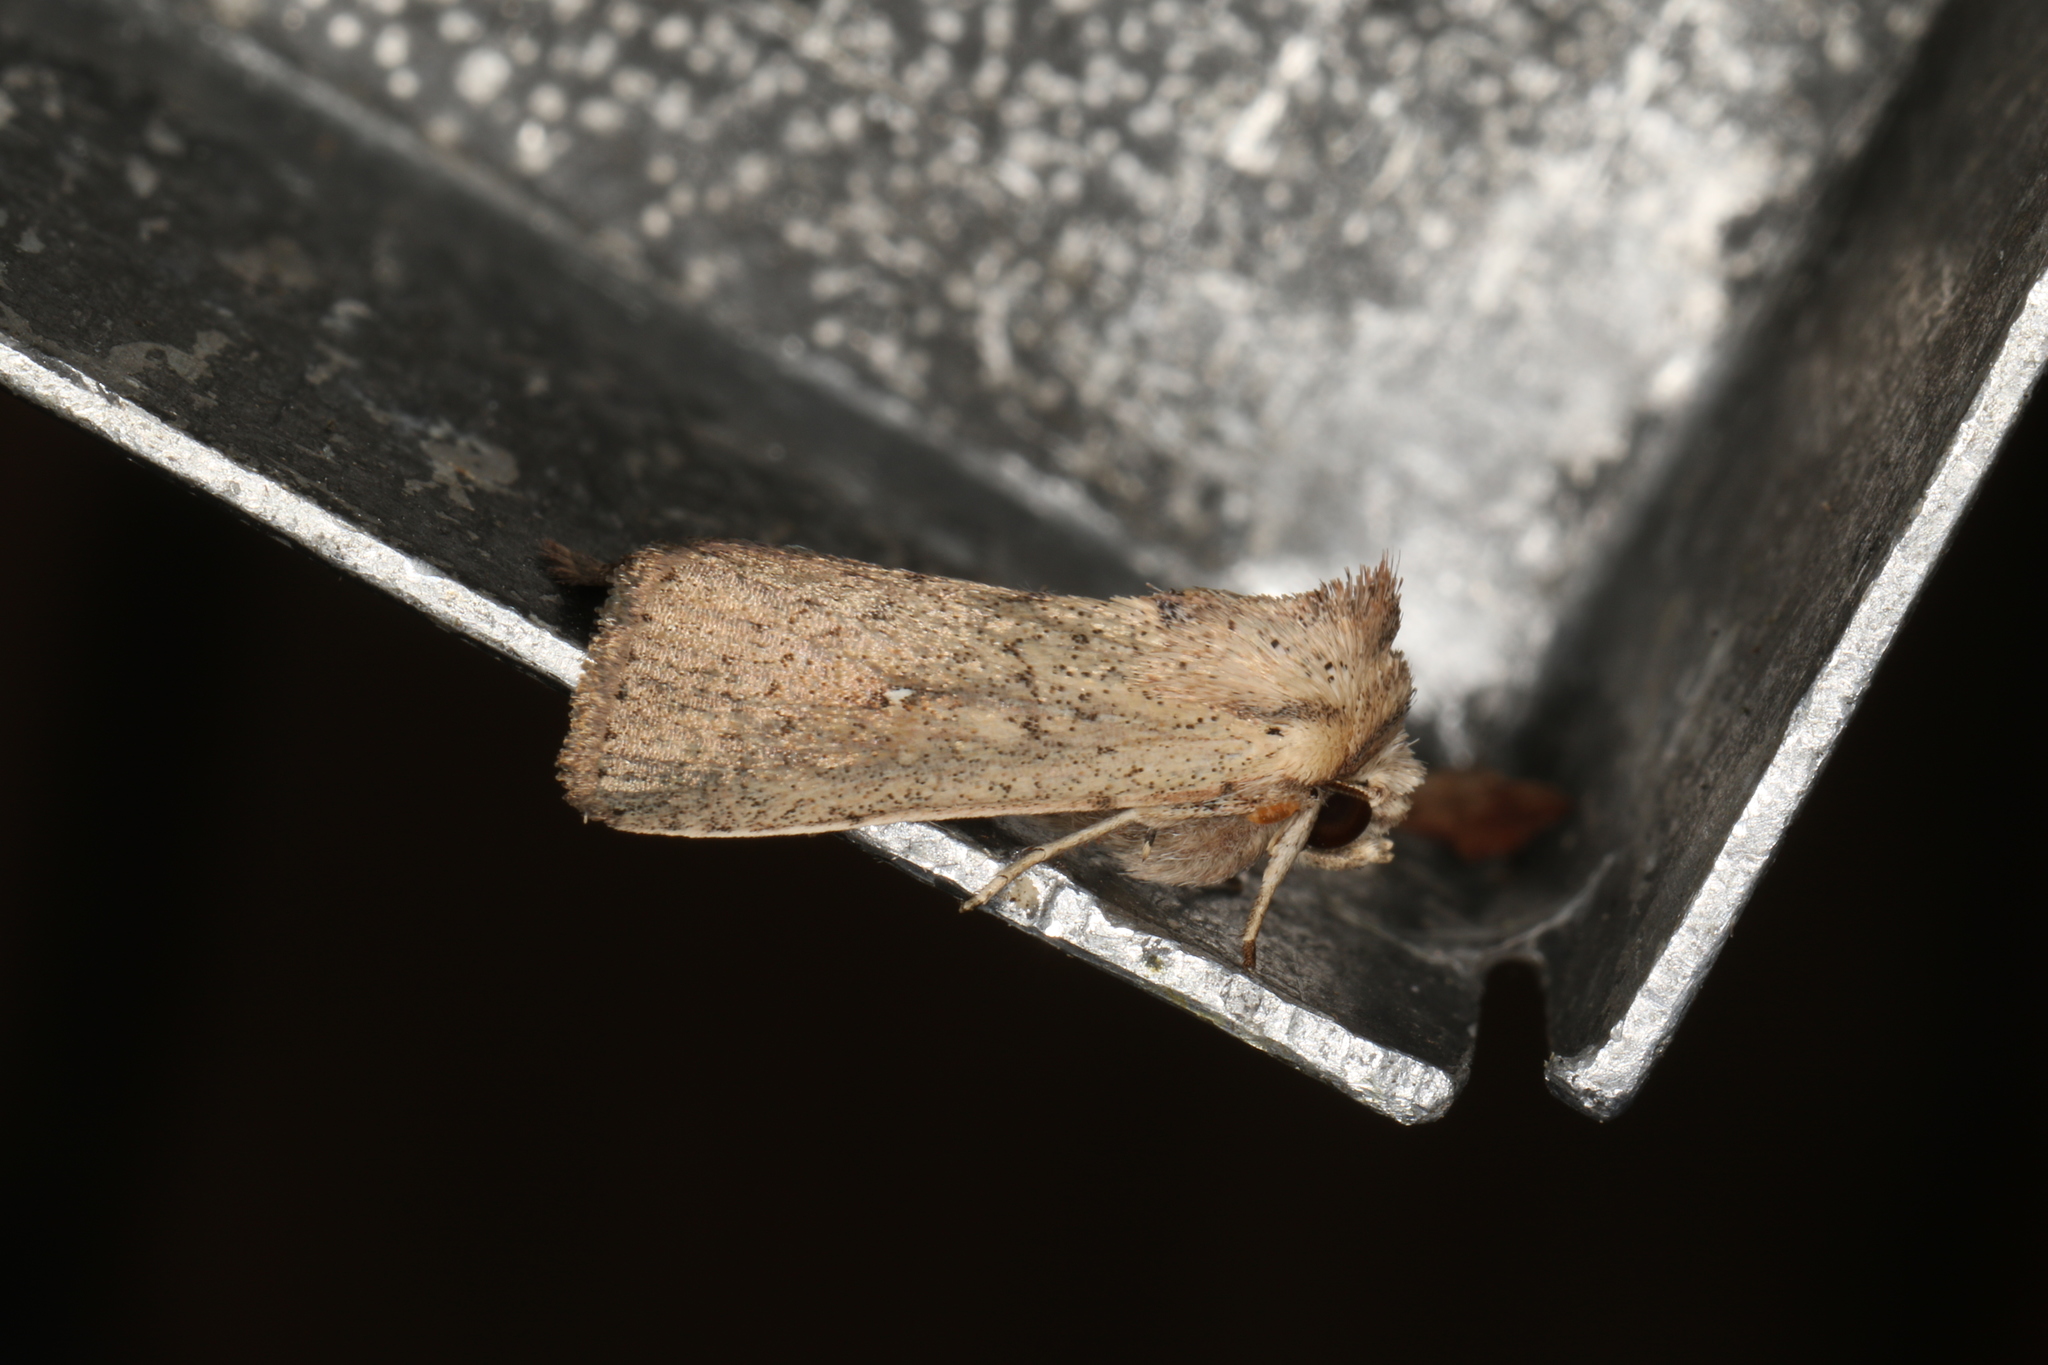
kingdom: Animalia
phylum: Arthropoda
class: Insecta
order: Lepidoptera
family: Noctuidae
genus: Leucania
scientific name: Leucania uda
